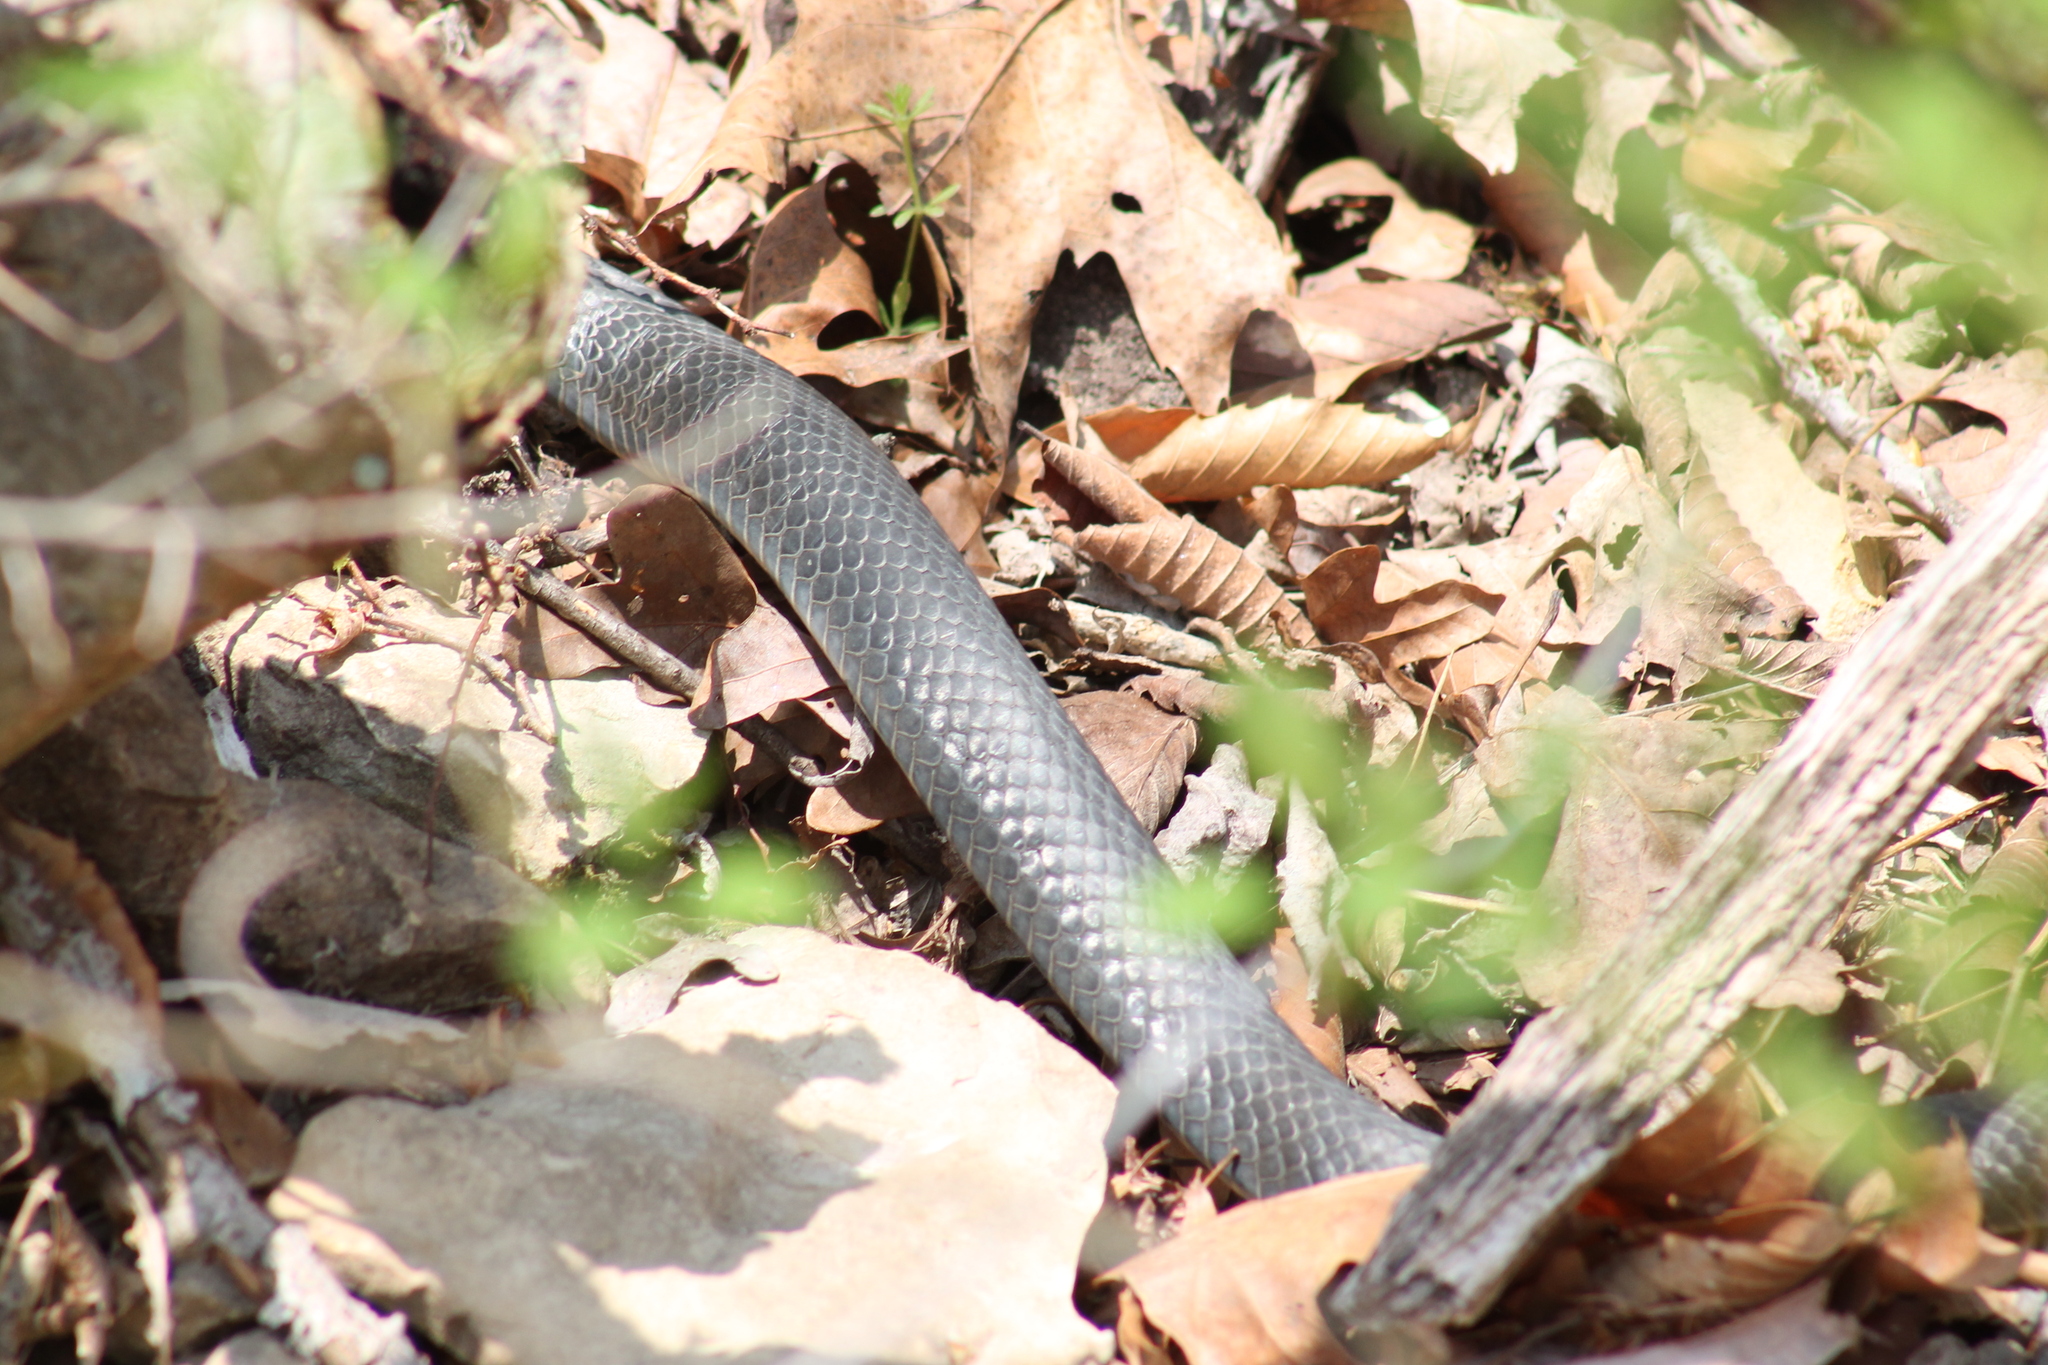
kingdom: Animalia
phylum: Chordata
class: Squamata
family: Colubridae
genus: Coluber
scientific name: Coluber constrictor
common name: Eastern racer
